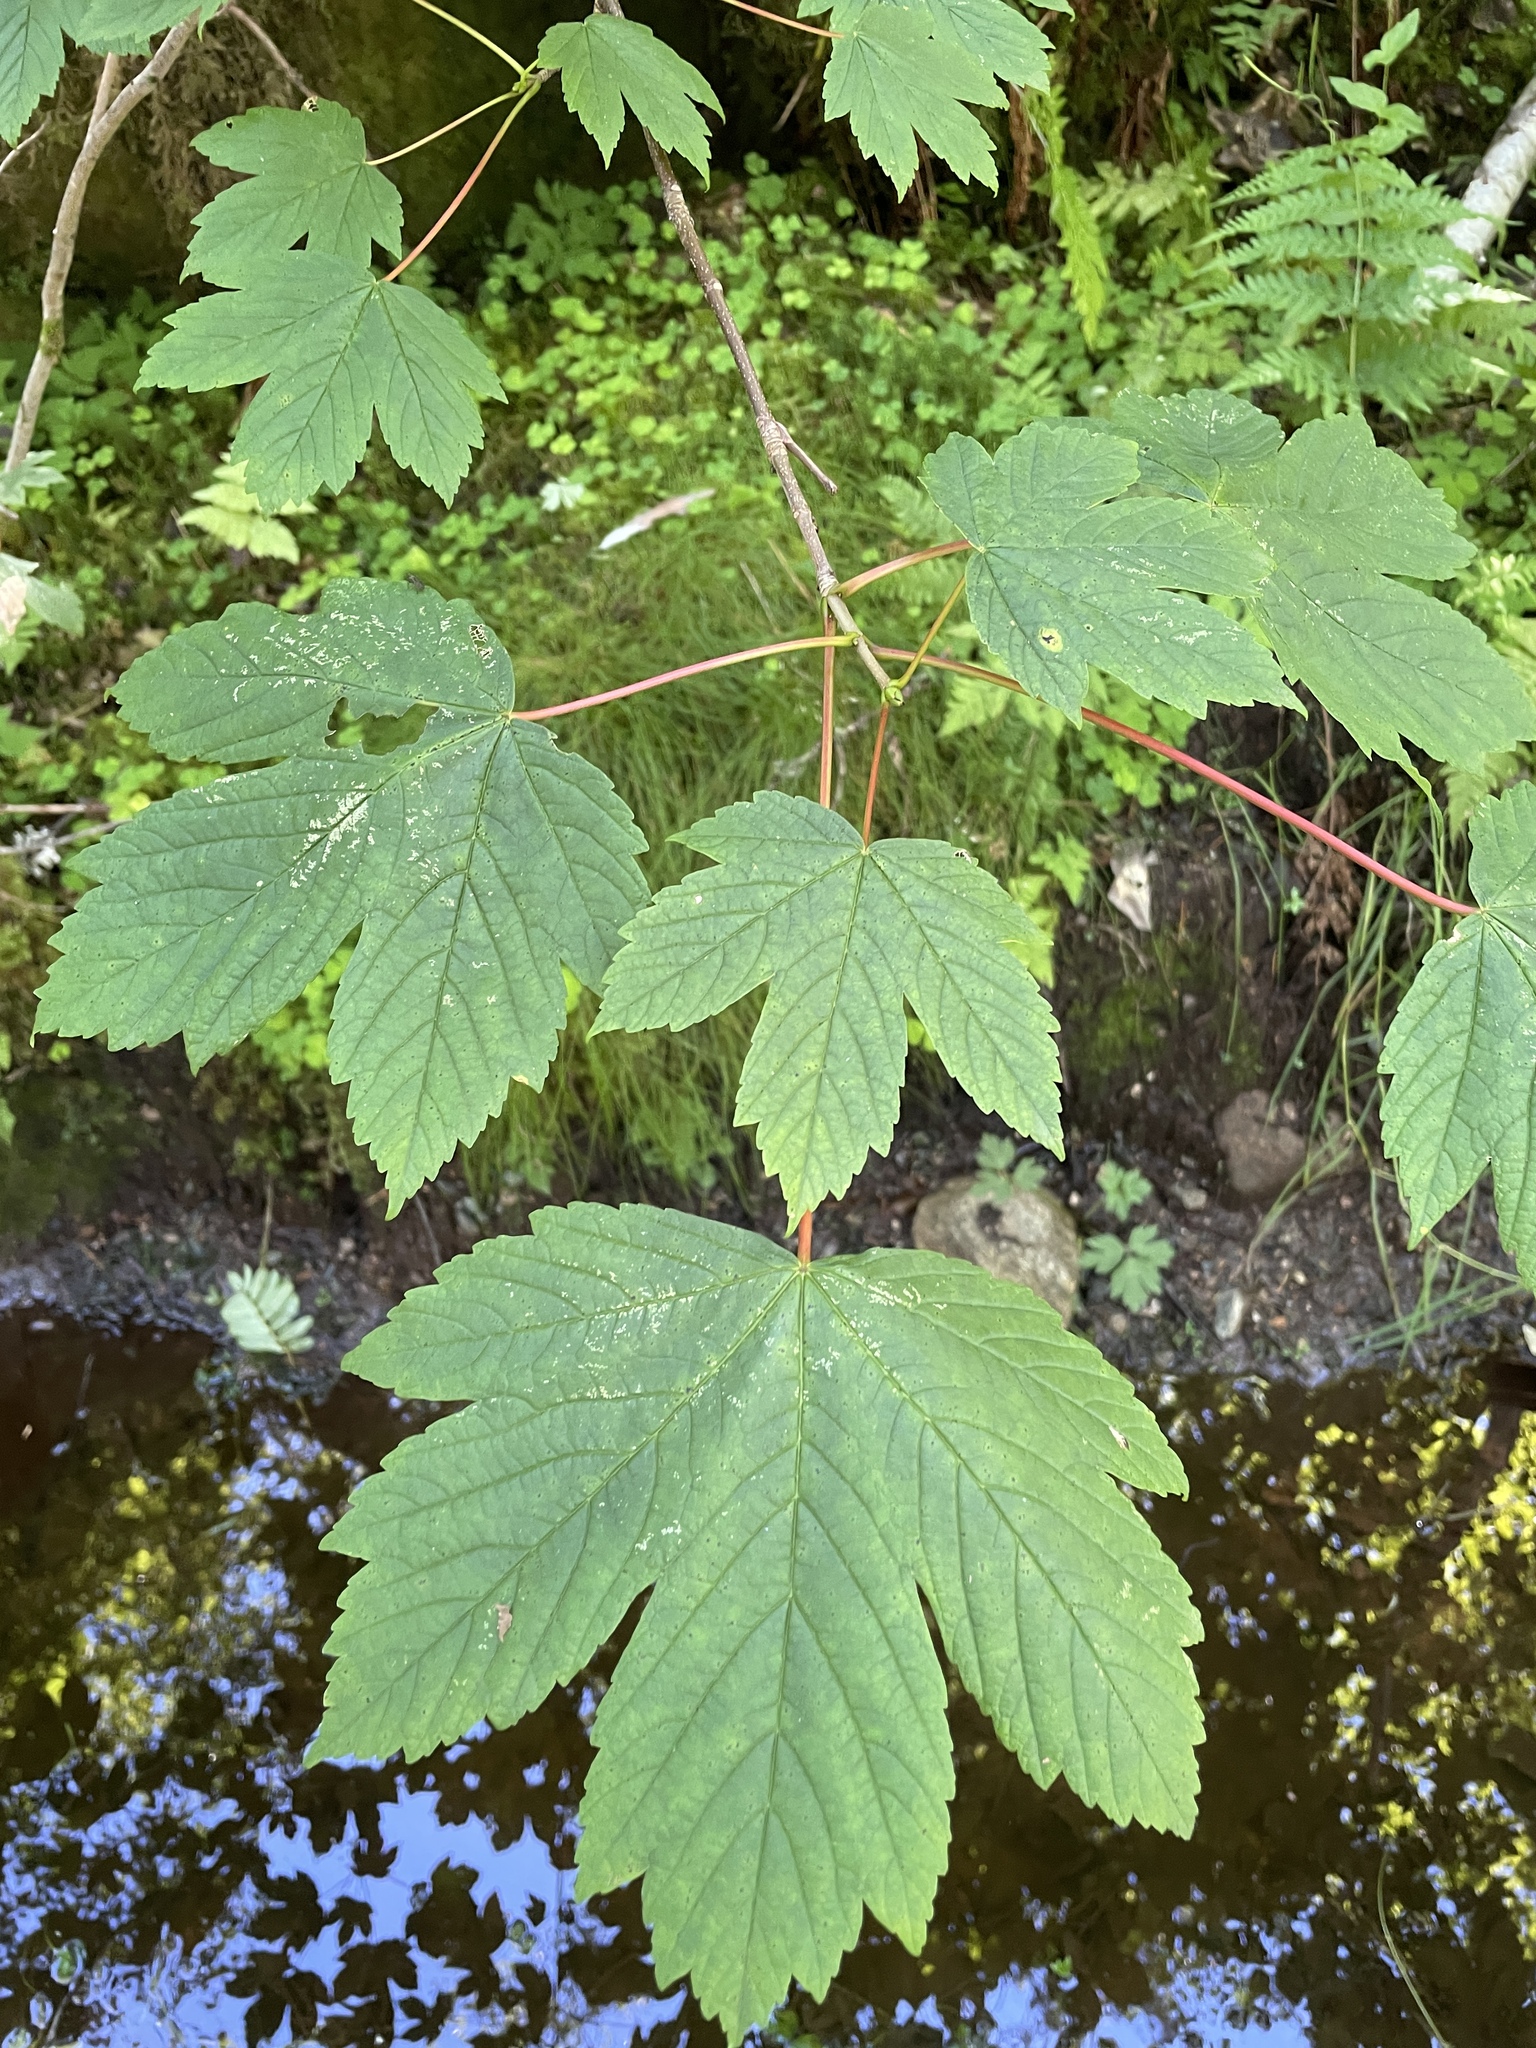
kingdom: Plantae
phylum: Tracheophyta
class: Magnoliopsida
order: Sapindales
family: Sapindaceae
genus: Acer
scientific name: Acer pseudoplatanus
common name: Sycamore
